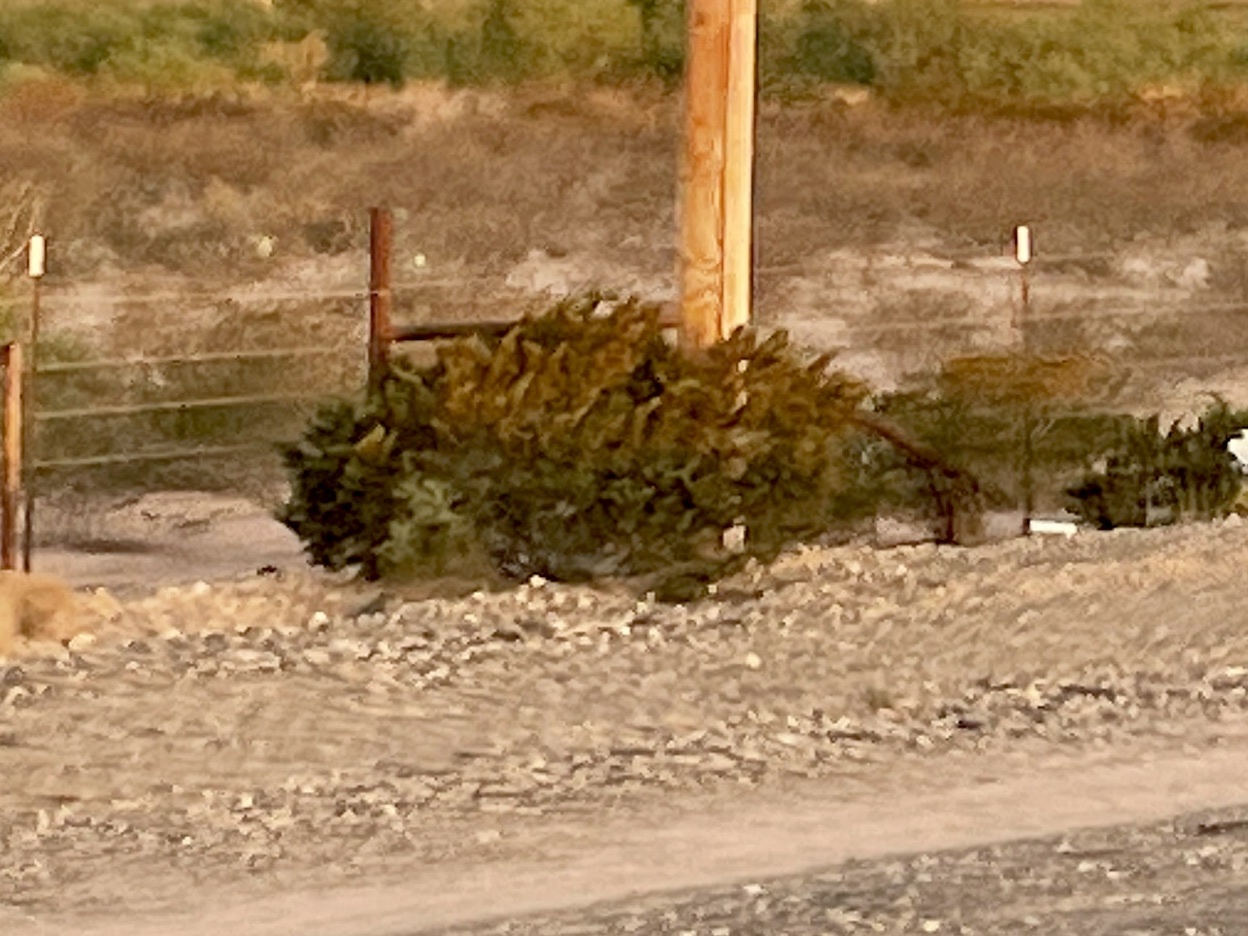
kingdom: Plantae
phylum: Tracheophyta
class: Magnoliopsida
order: Zygophyllales
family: Zygophyllaceae
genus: Larrea
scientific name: Larrea tridentata
